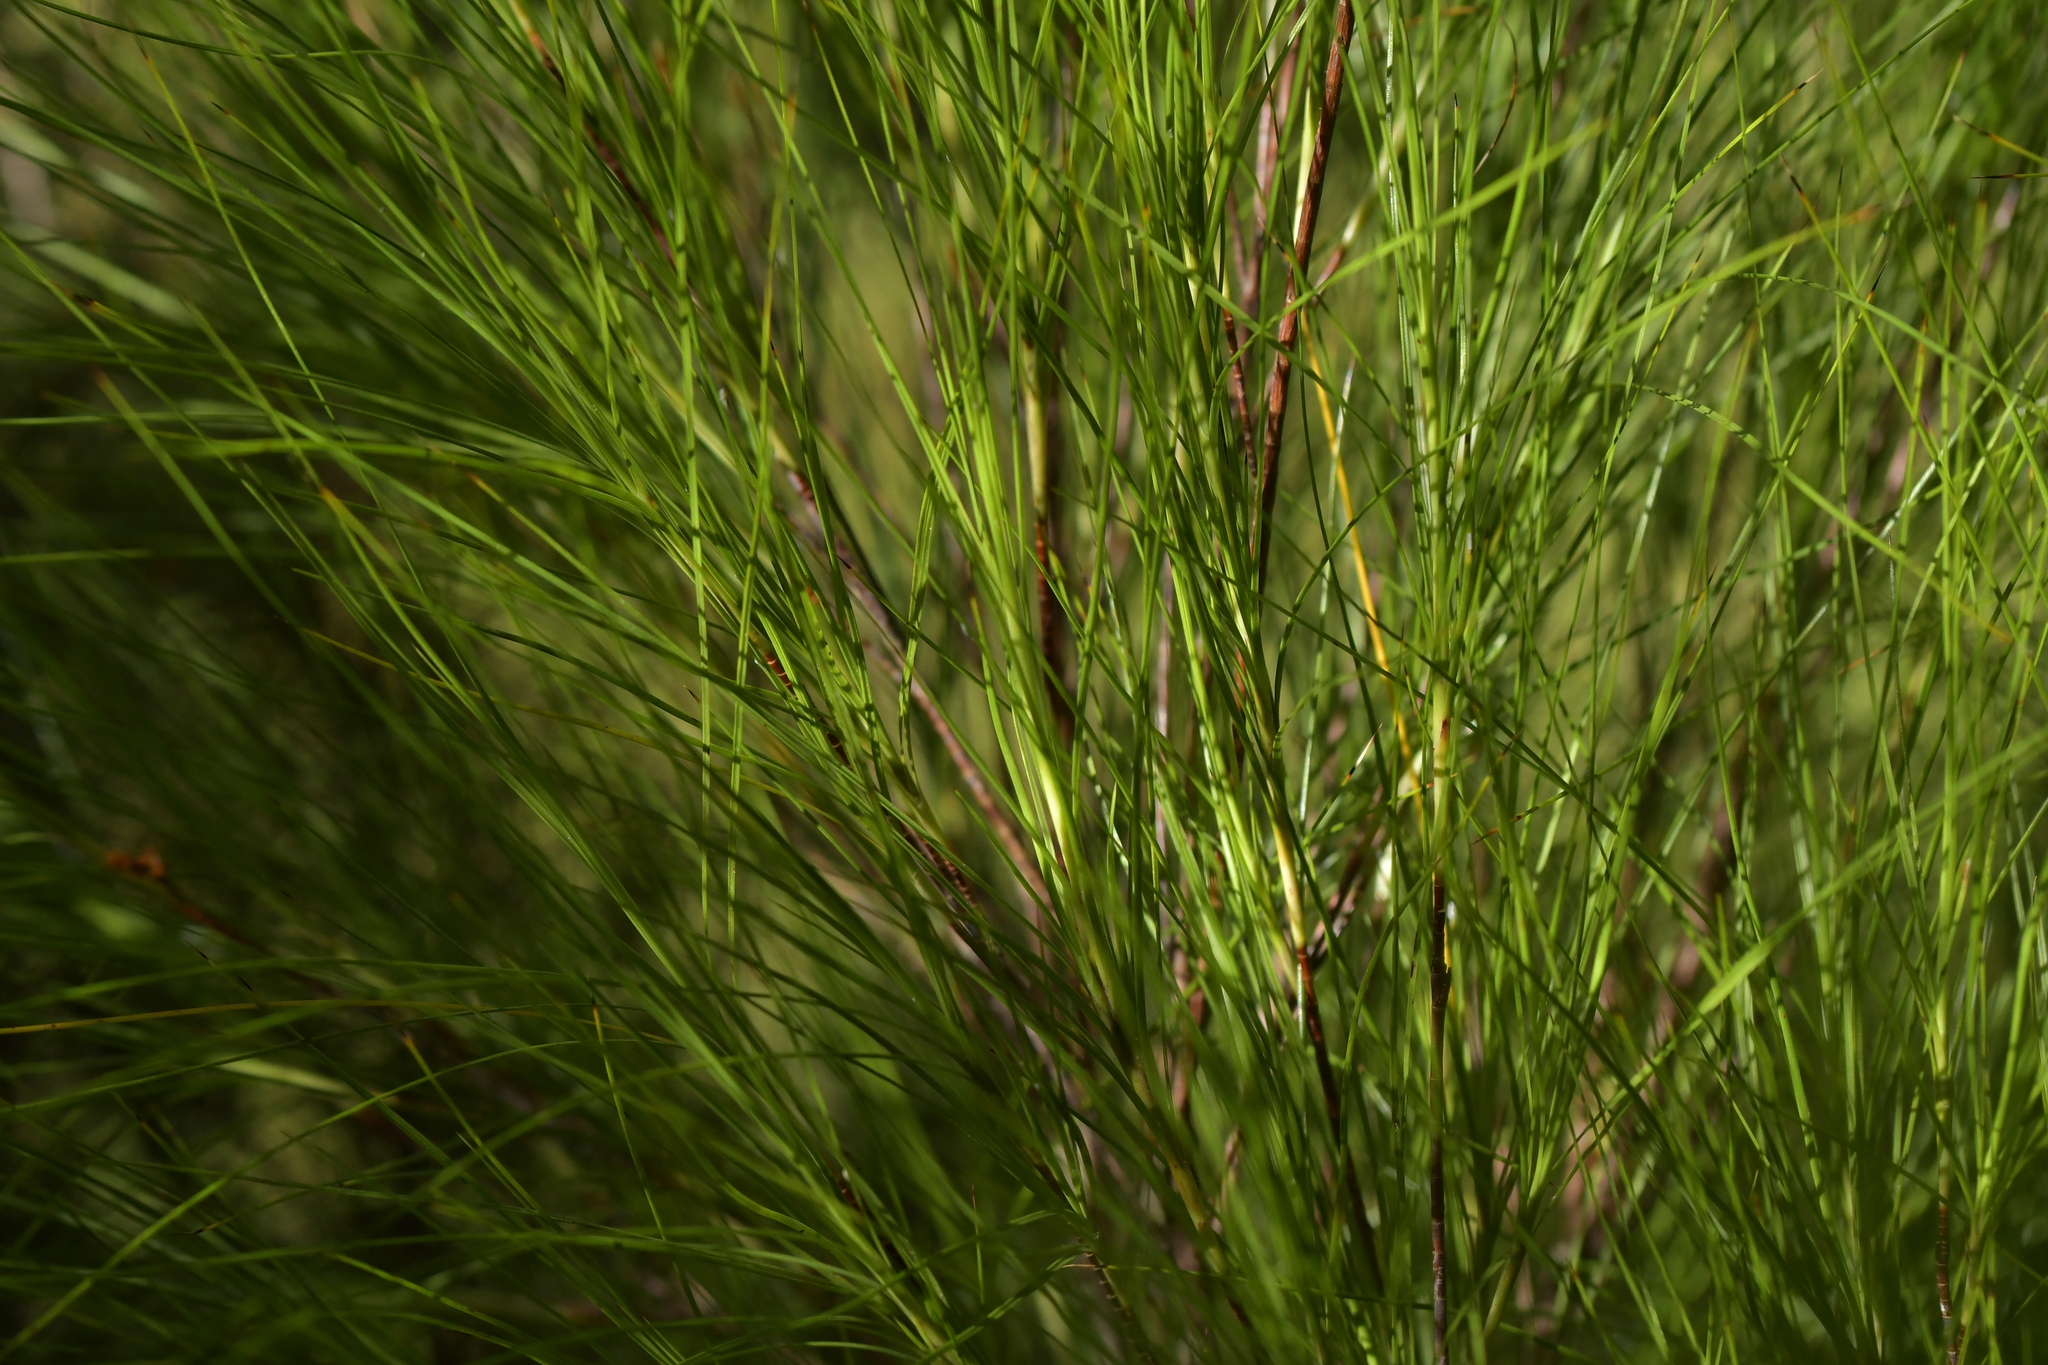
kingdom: Plantae
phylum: Tracheophyta
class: Magnoliopsida
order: Ericales
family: Ericaceae
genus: Dracophyllum
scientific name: Dracophyllum filifolium
